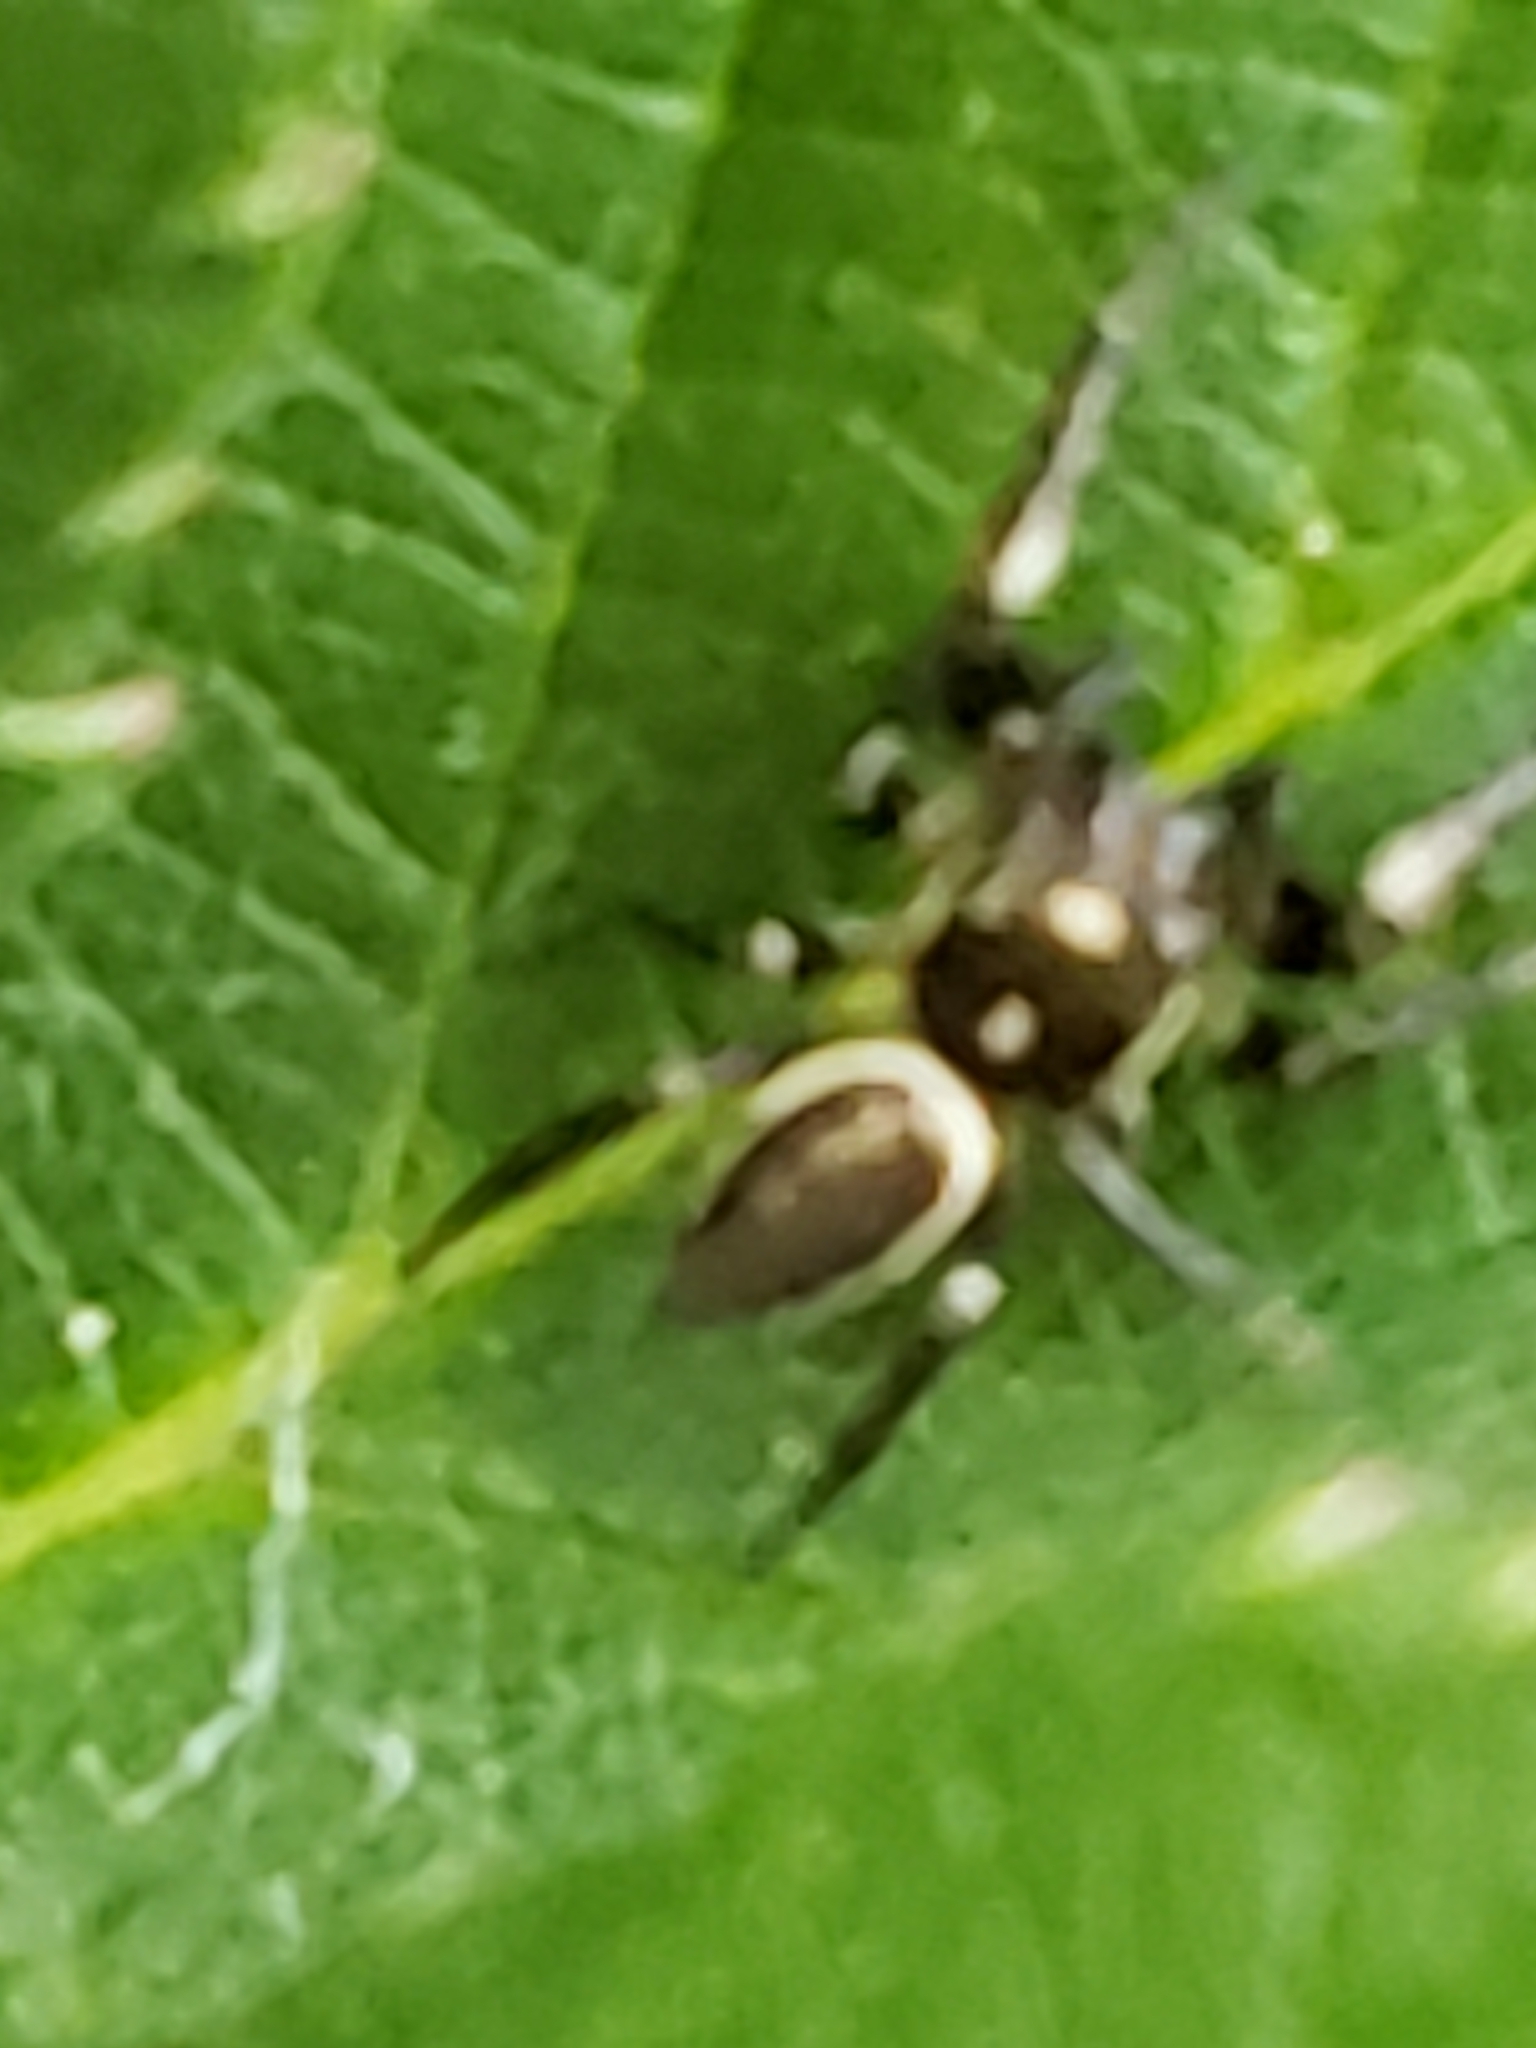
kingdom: Animalia
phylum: Arthropoda
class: Arachnida
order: Araneae
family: Salticidae
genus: Eris
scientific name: Eris militaris
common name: Bronze jumper
